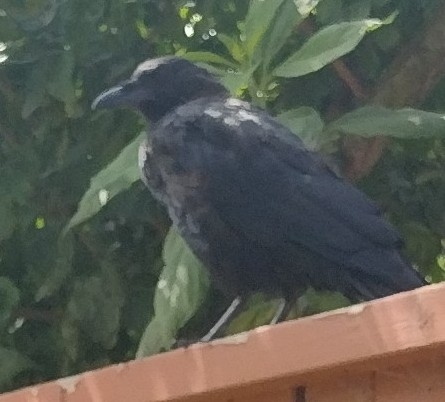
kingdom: Animalia
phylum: Chordata
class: Aves
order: Passeriformes
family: Corvidae
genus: Corvus
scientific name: Corvus brachyrhynchos
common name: American crow
